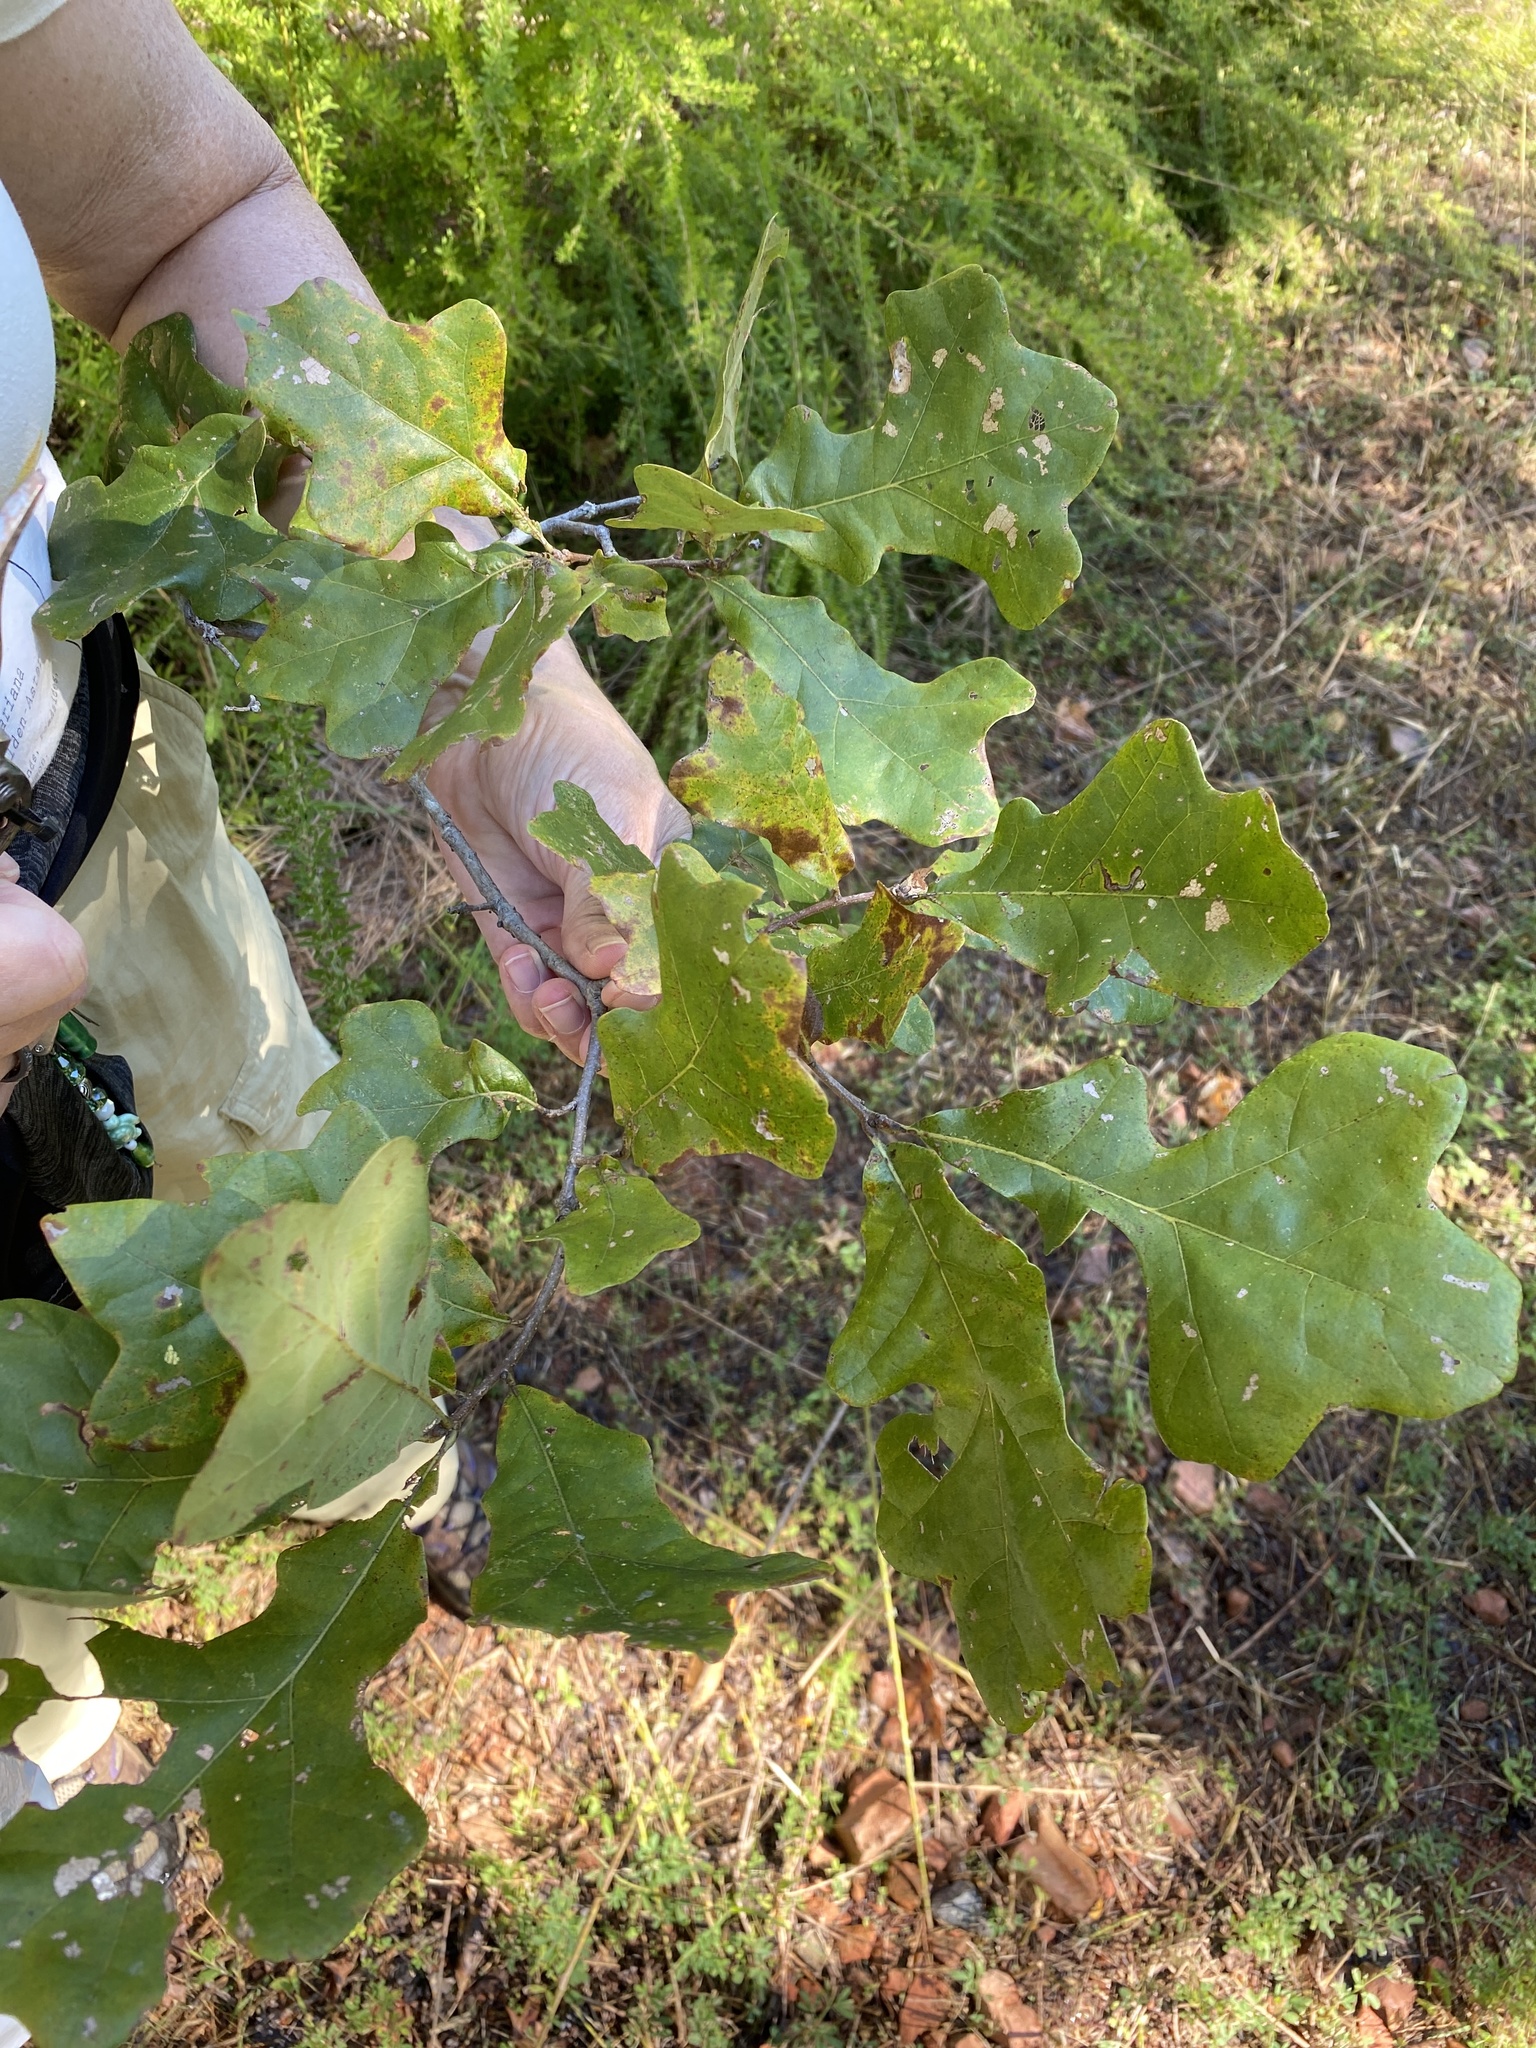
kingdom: Plantae
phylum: Tracheophyta
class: Magnoliopsida
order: Fagales
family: Fagaceae
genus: Quercus
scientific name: Quercus stellata
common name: Post oak
